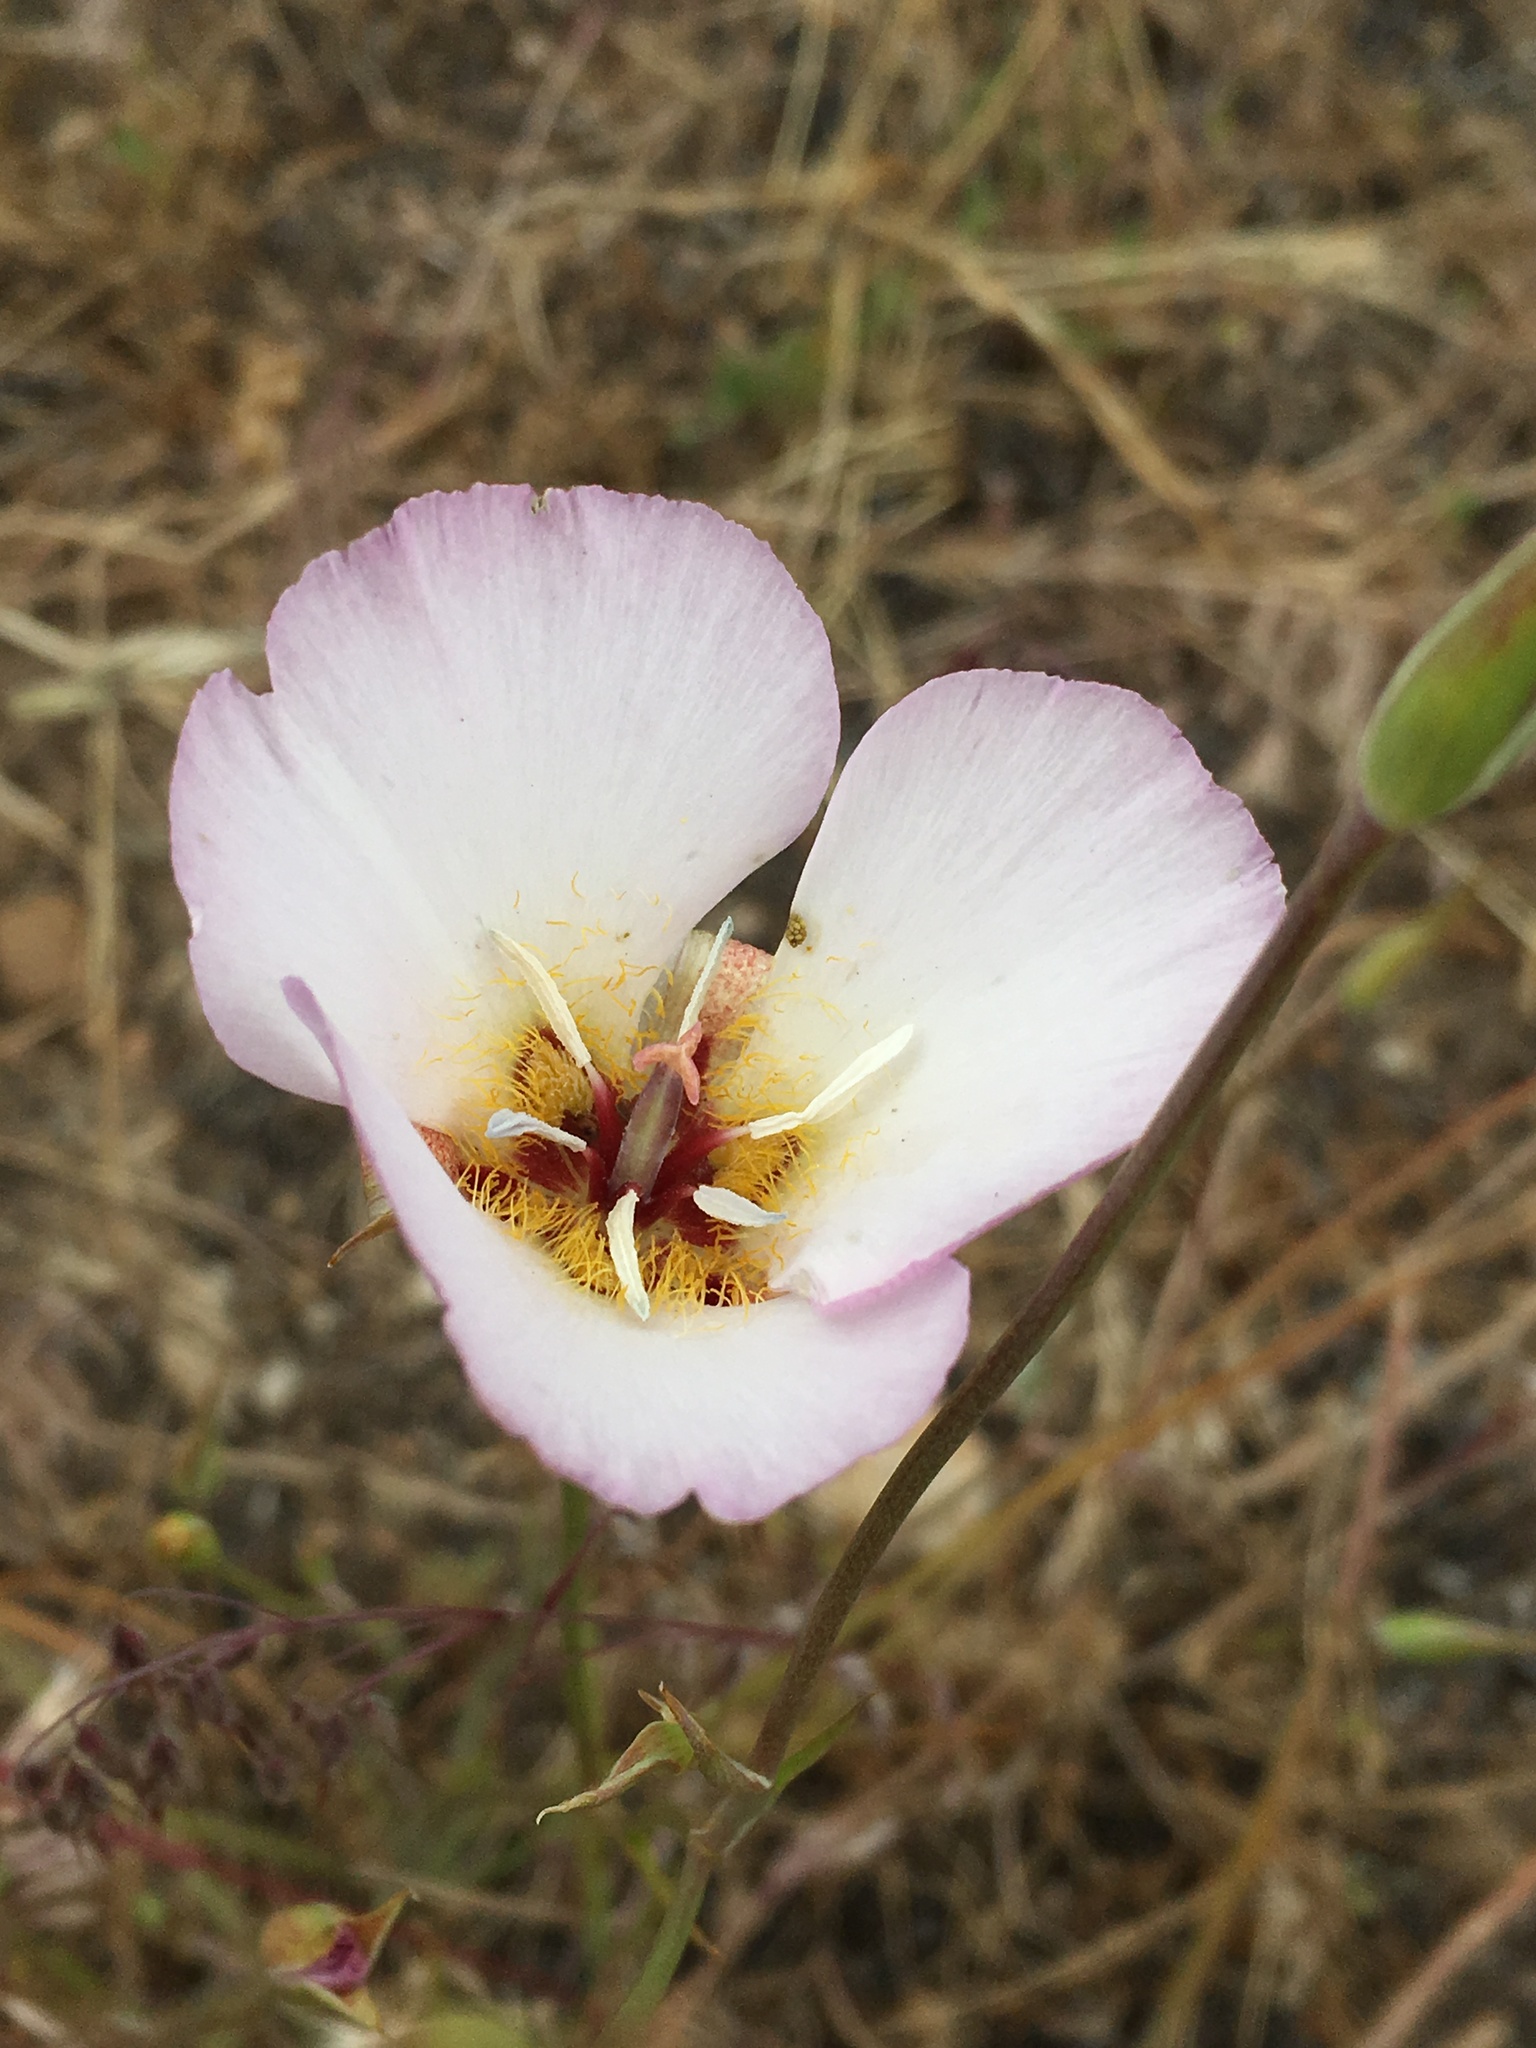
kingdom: Plantae
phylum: Tracheophyta
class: Liliopsida
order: Liliales
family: Liliaceae
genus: Calochortus
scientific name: Calochortus palmeri
